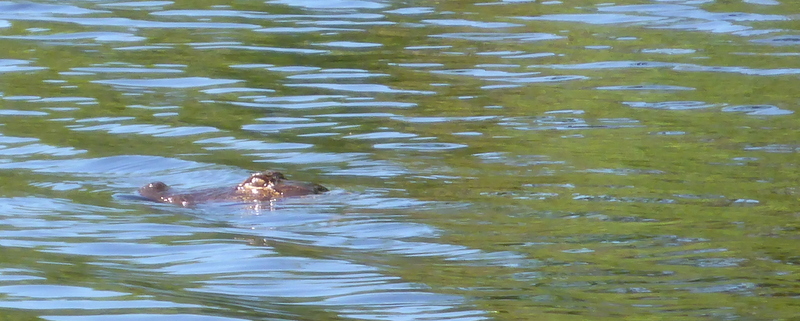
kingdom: Animalia
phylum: Chordata
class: Crocodylia
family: Alligatoridae
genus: Alligator
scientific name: Alligator mississippiensis
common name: American alligator
